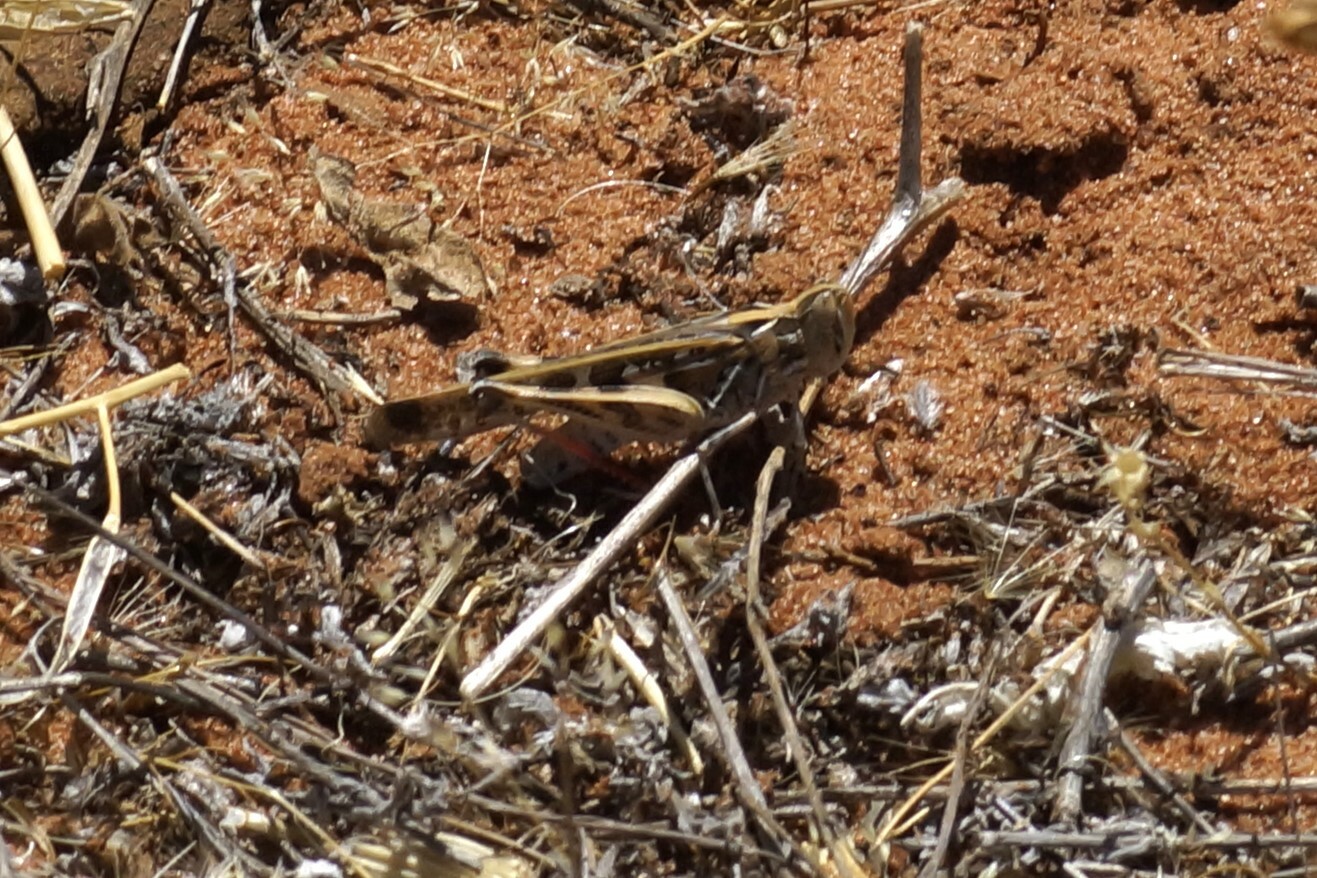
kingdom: Animalia
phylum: Arthropoda
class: Insecta
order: Orthoptera
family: Acrididae
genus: Chortoicetes
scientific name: Chortoicetes terminifera
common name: Australian plague locust
